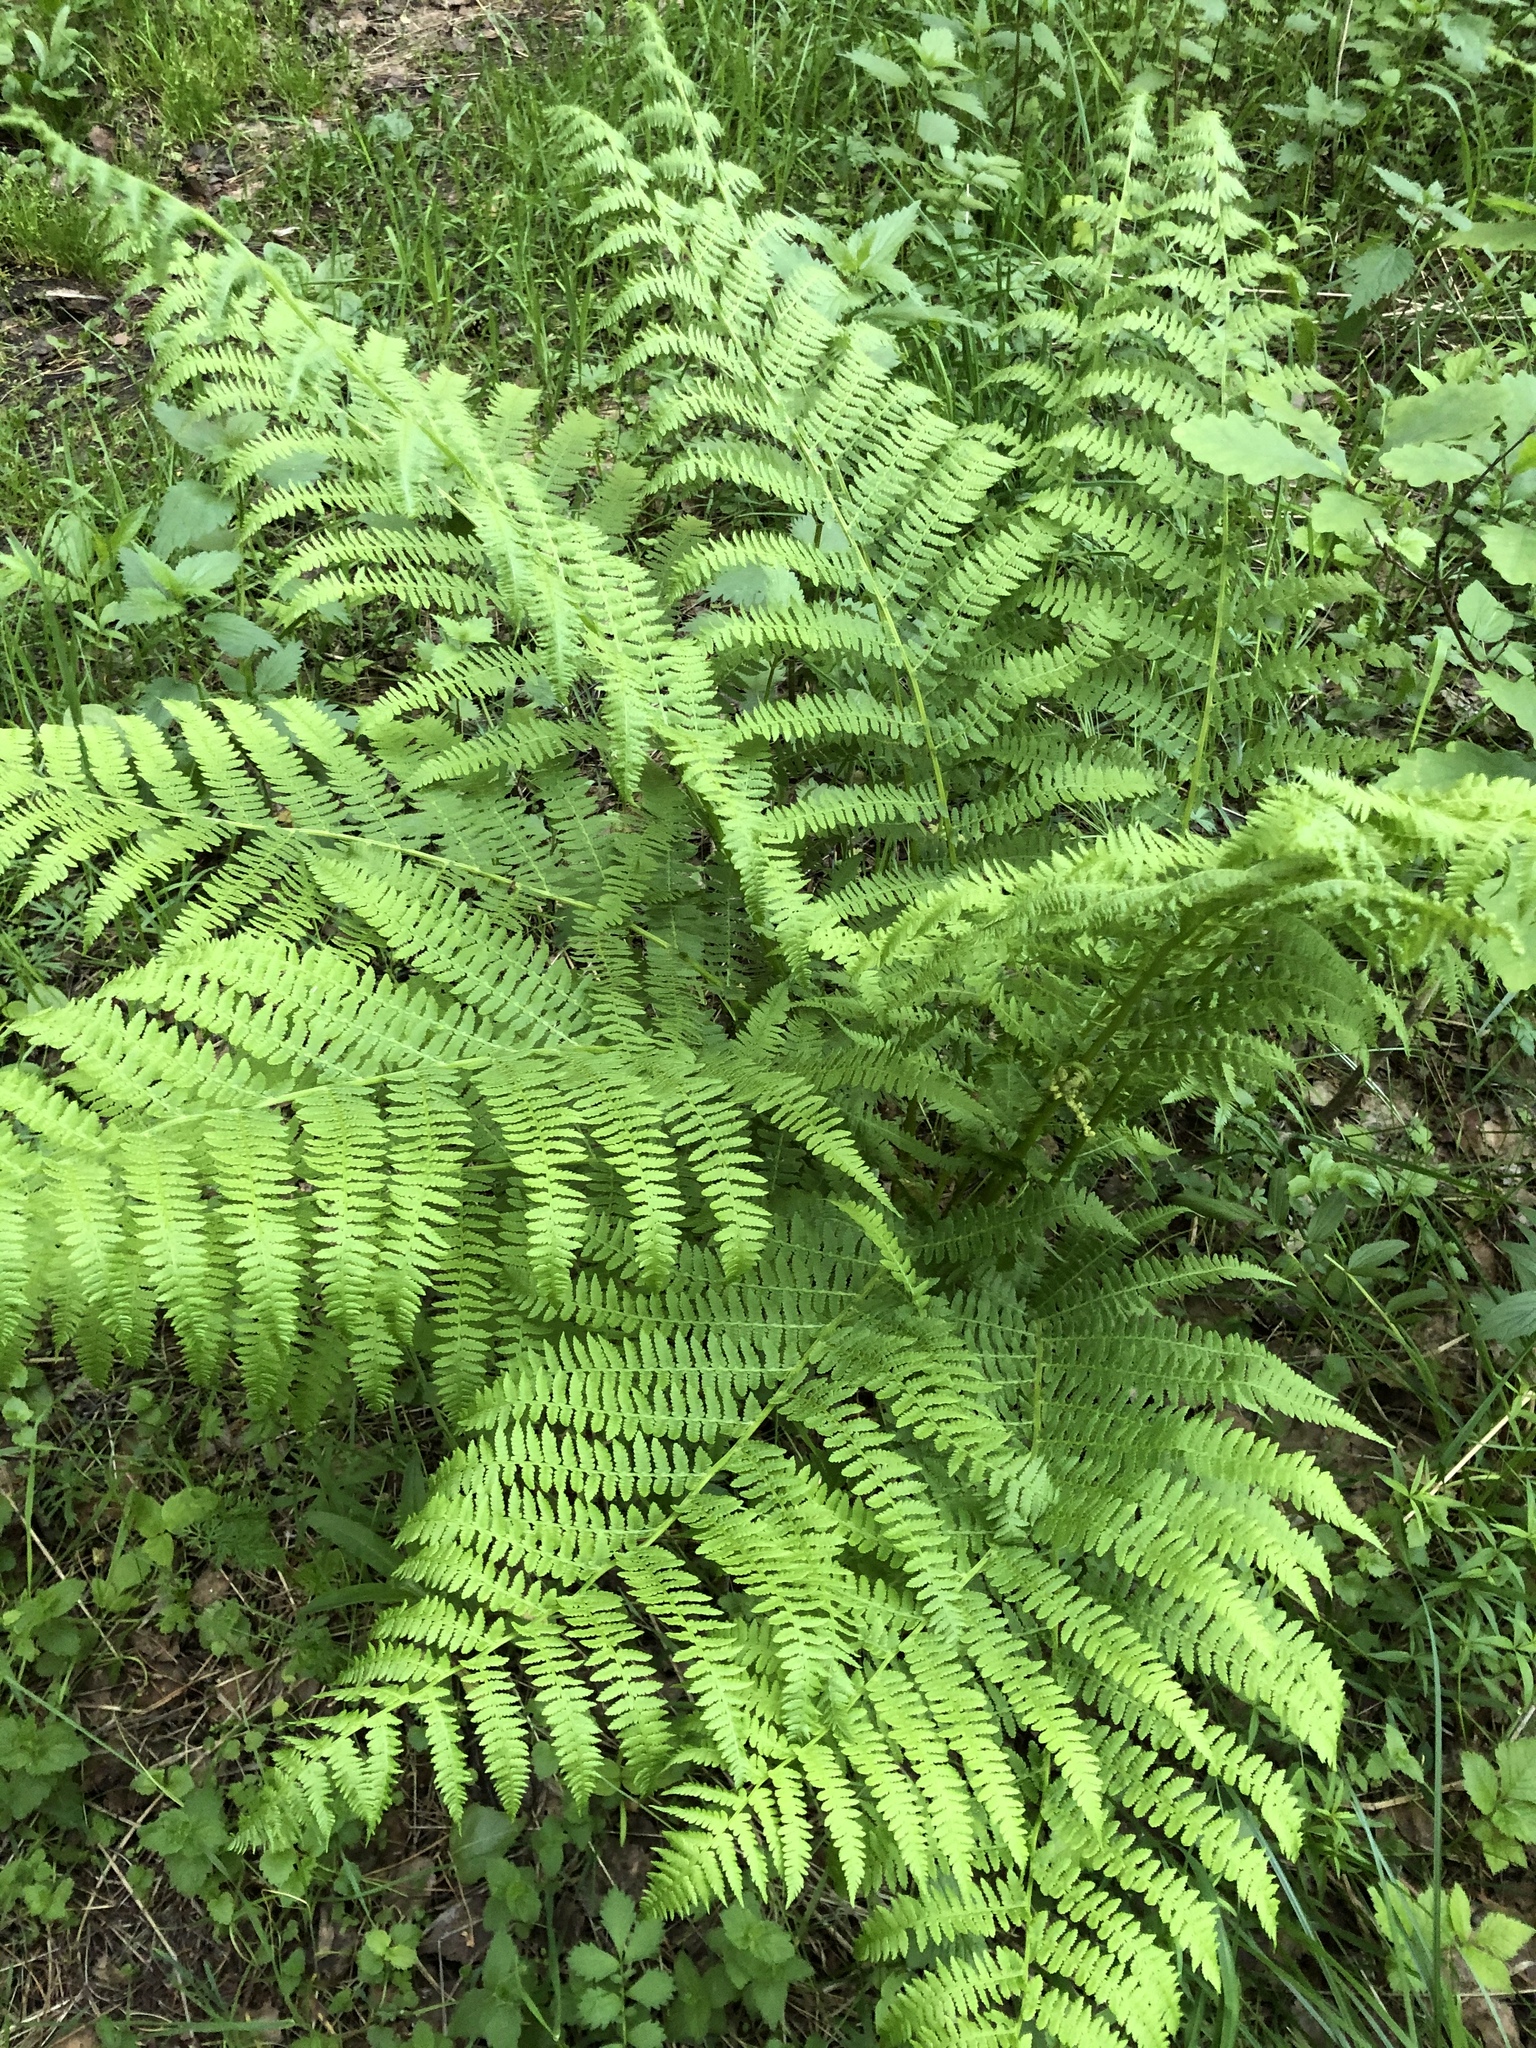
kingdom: Plantae
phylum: Tracheophyta
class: Polypodiopsida
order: Polypodiales
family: Athyriaceae
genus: Athyrium
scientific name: Athyrium filix-femina
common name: Lady fern
